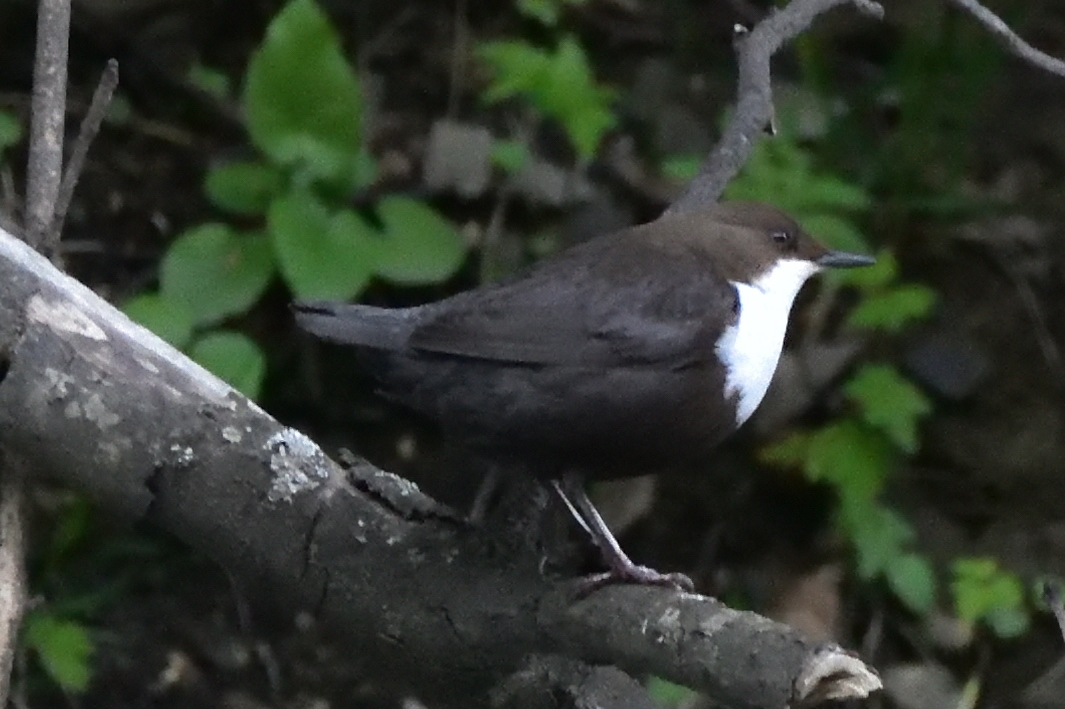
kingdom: Animalia
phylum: Chordata
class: Aves
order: Passeriformes
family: Cinclidae
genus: Cinclus
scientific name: Cinclus cinclus
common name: White-throated dipper
